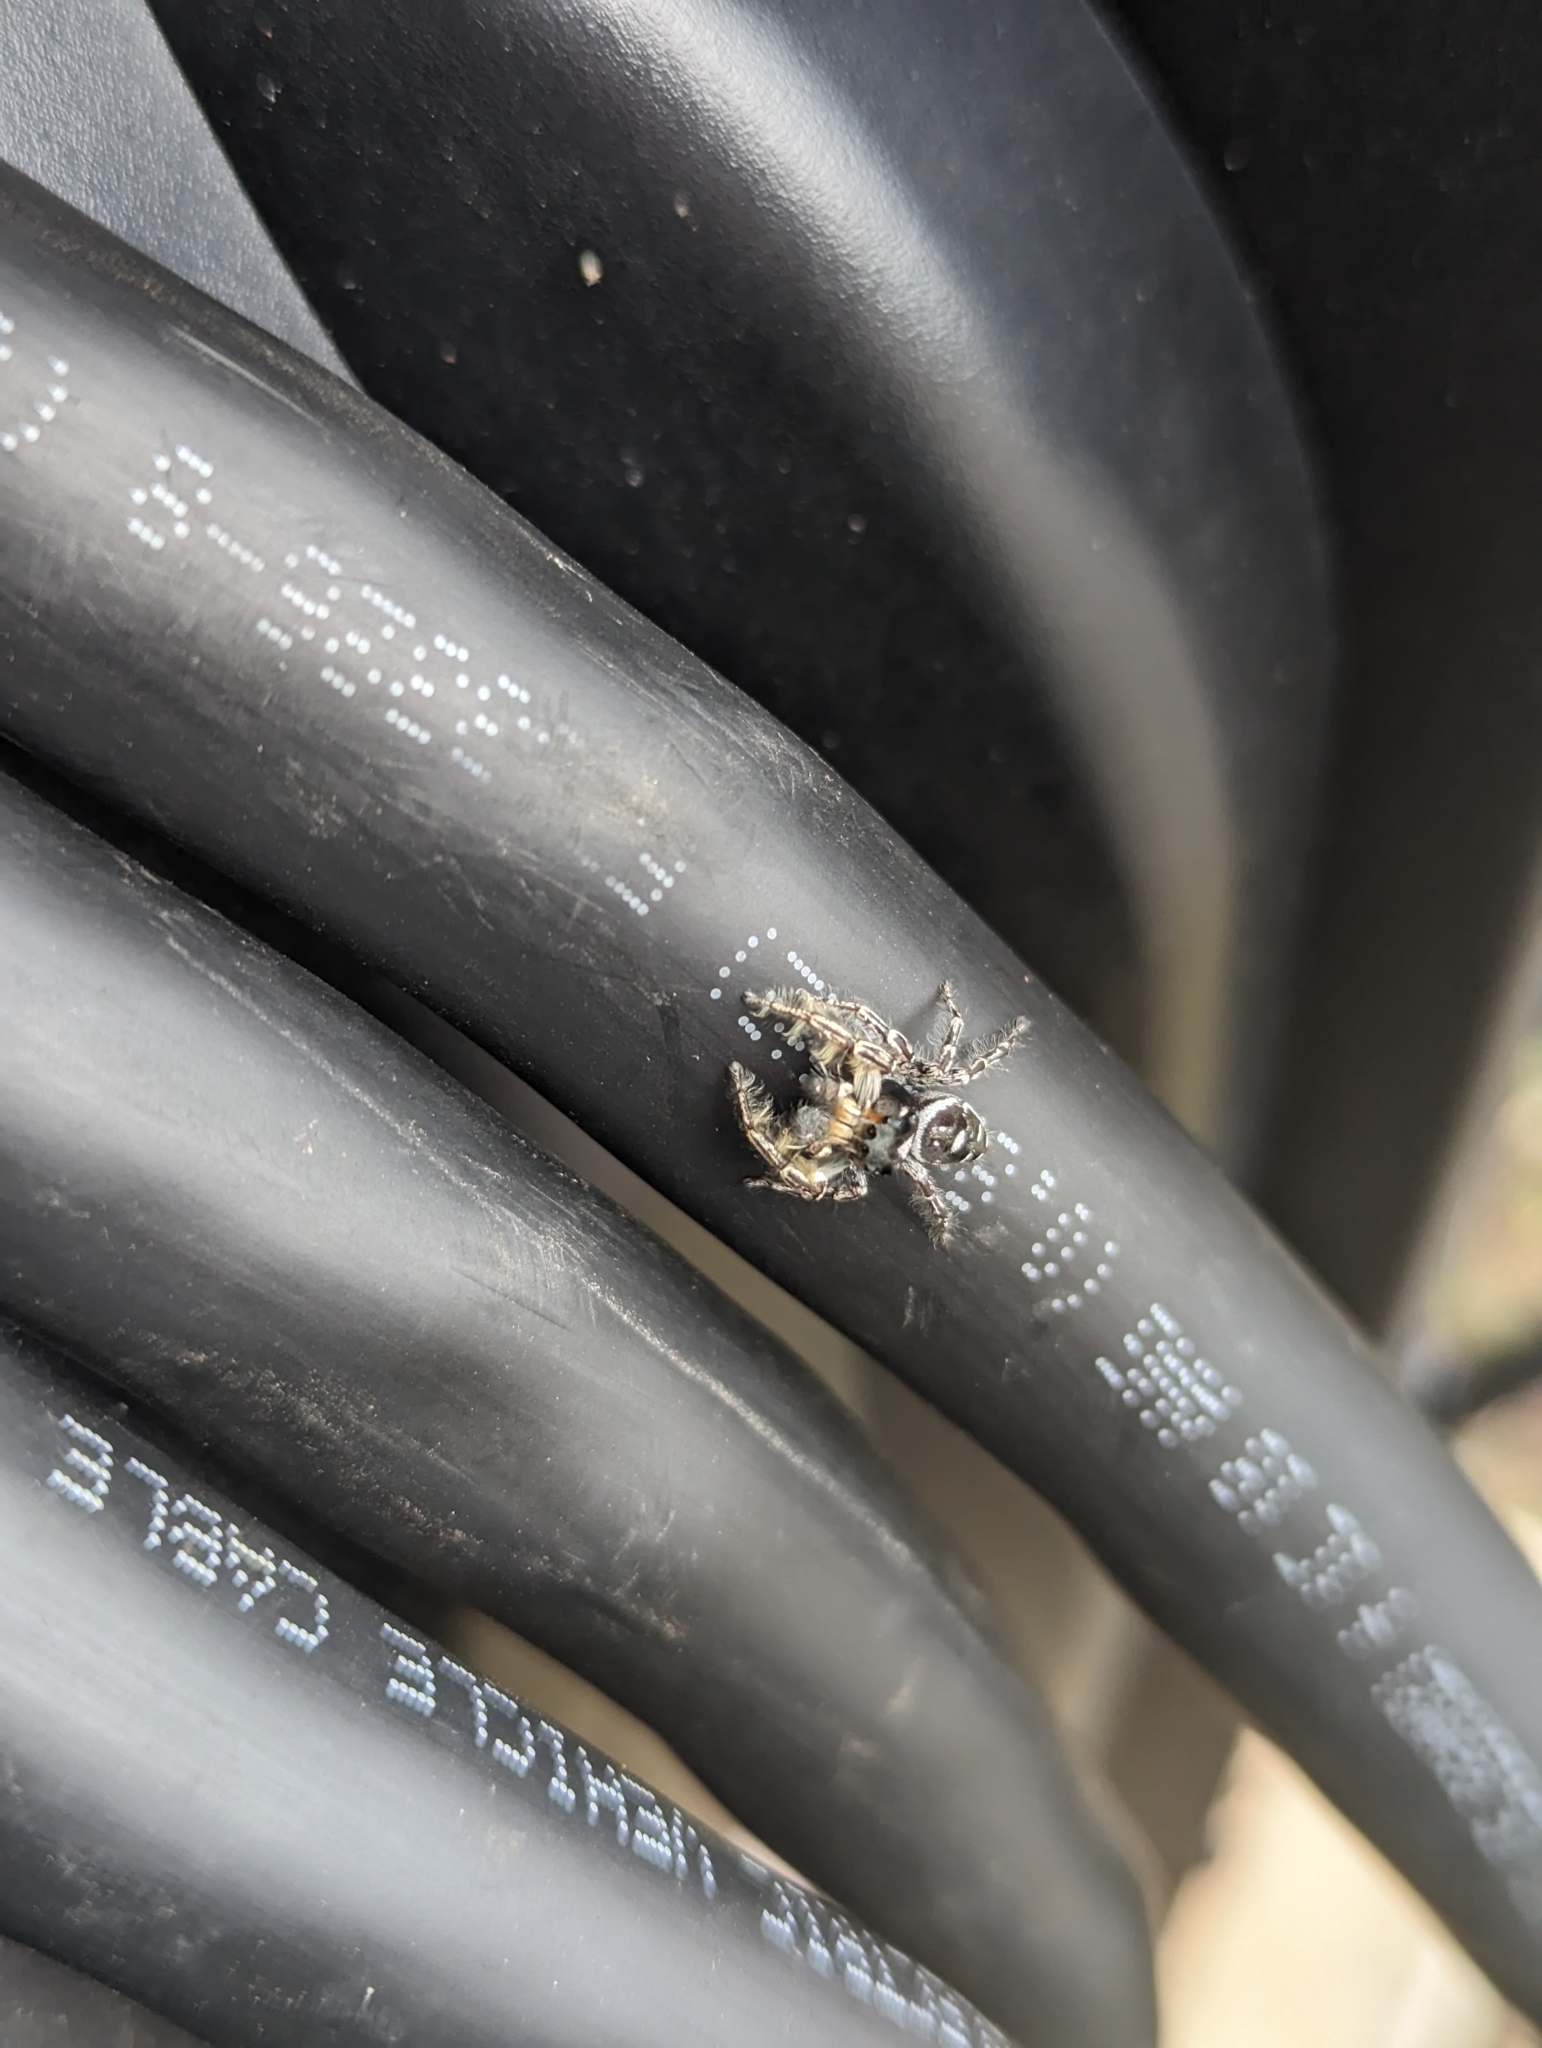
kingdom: Animalia
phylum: Arthropoda
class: Arachnida
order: Araneae
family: Salticidae
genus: Phidippus
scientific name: Phidippus putnami
